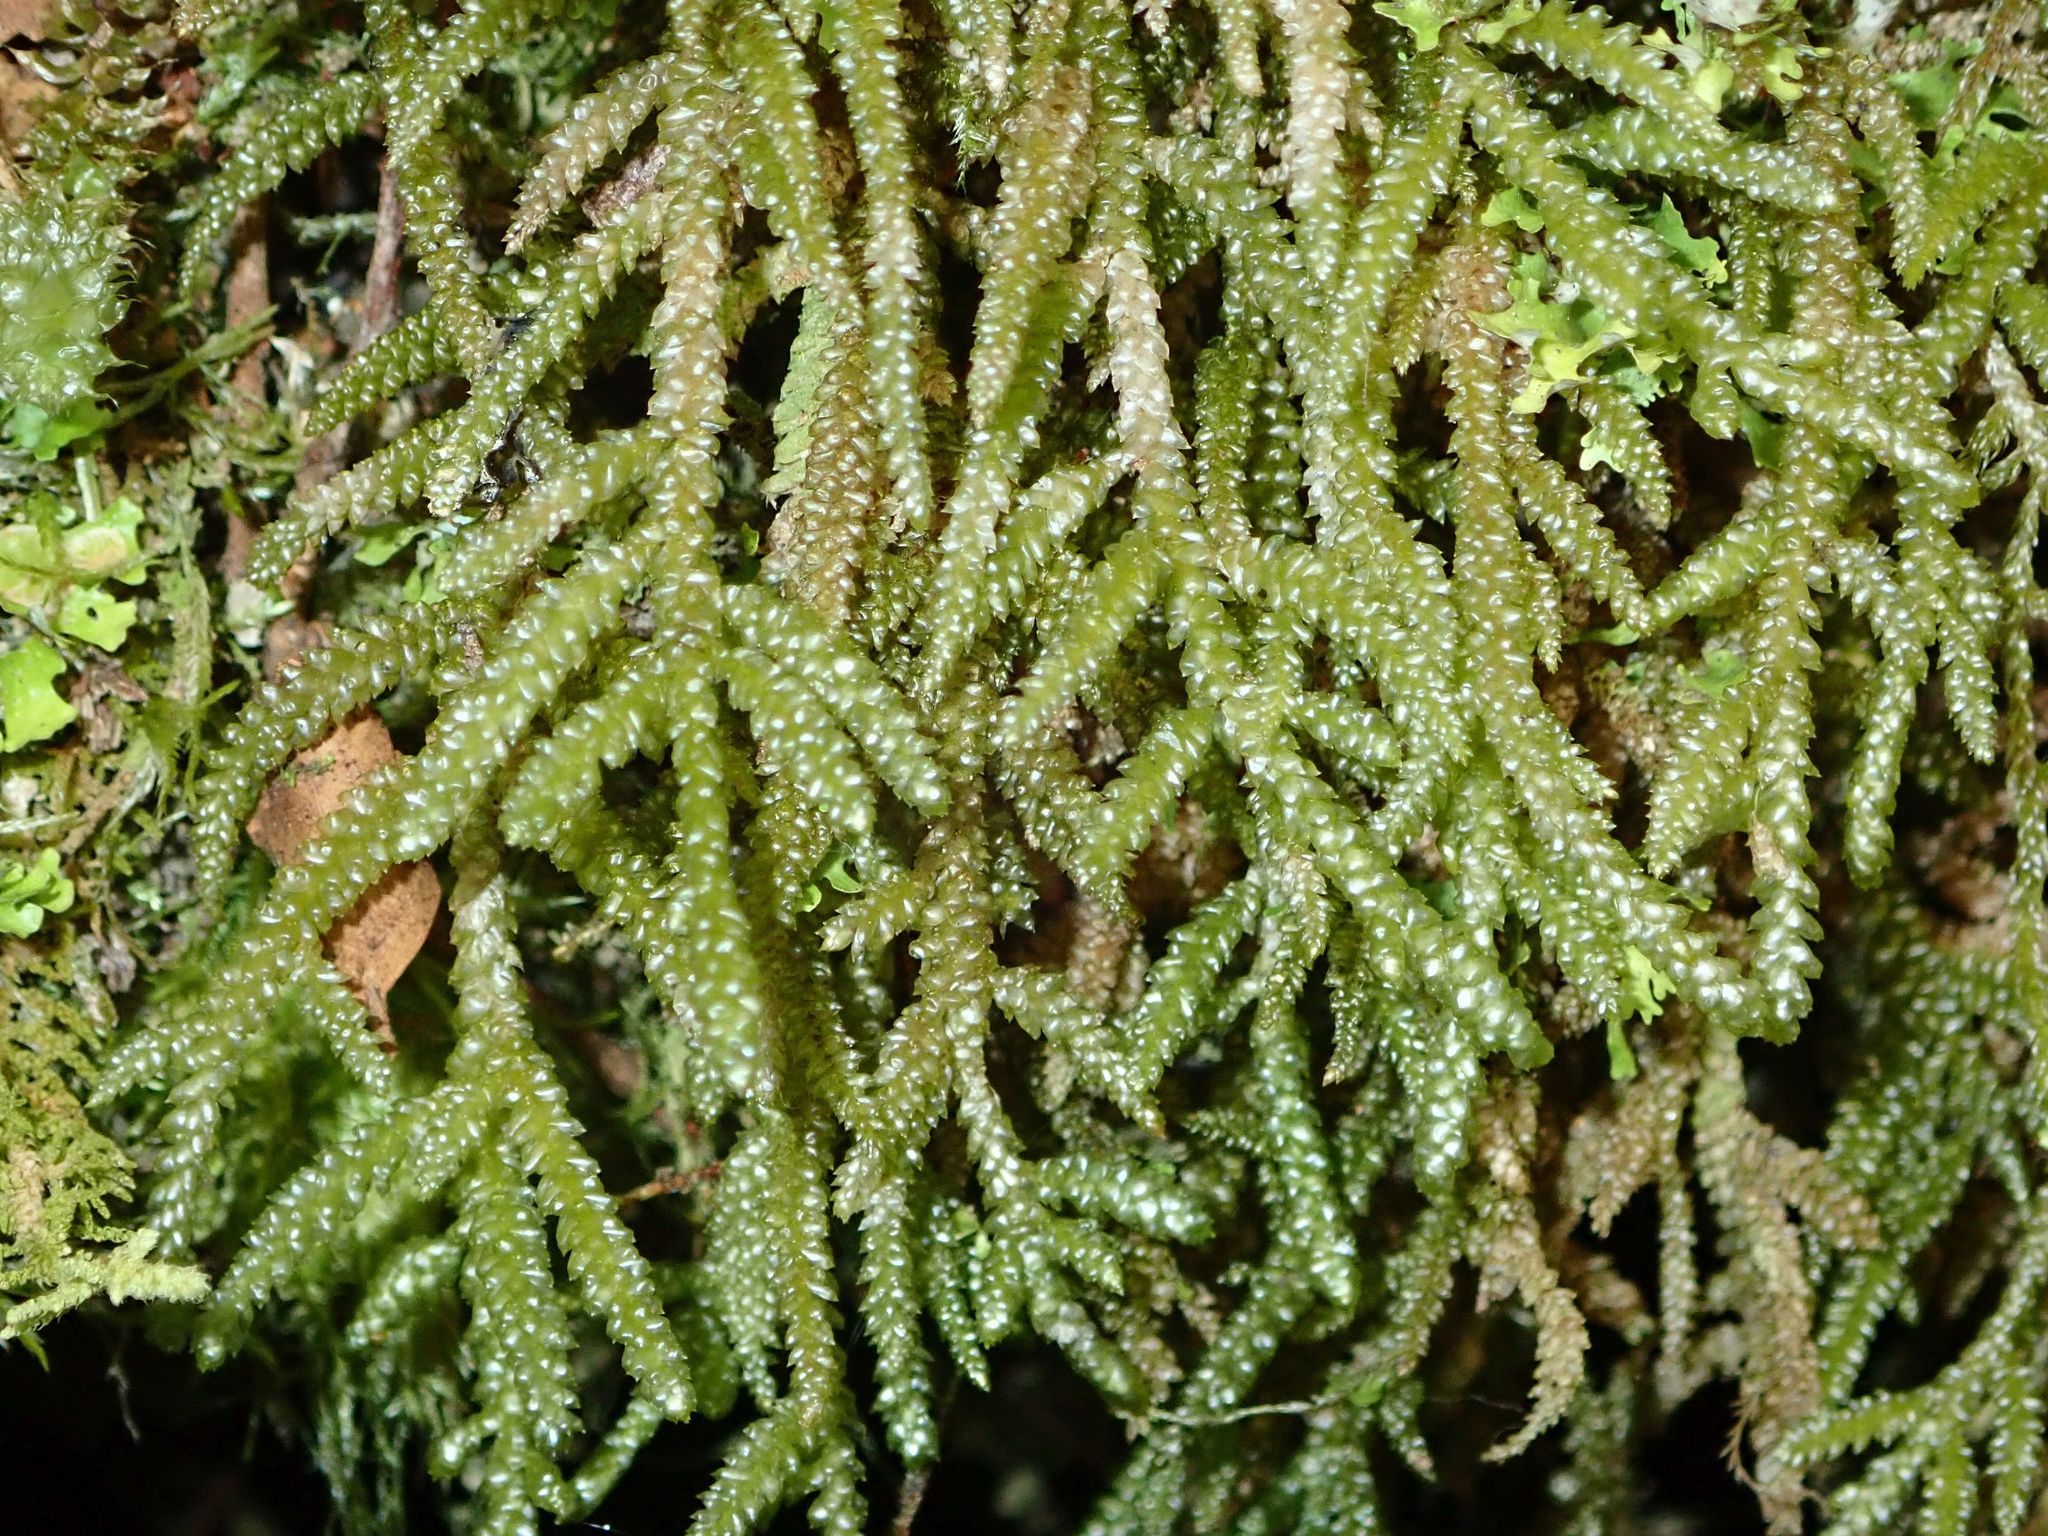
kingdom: Plantae
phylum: Bryophyta
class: Bryopsida
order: Hypnales
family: Lembophyllaceae
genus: Weymouthia
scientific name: Weymouthia cochlearifolia
